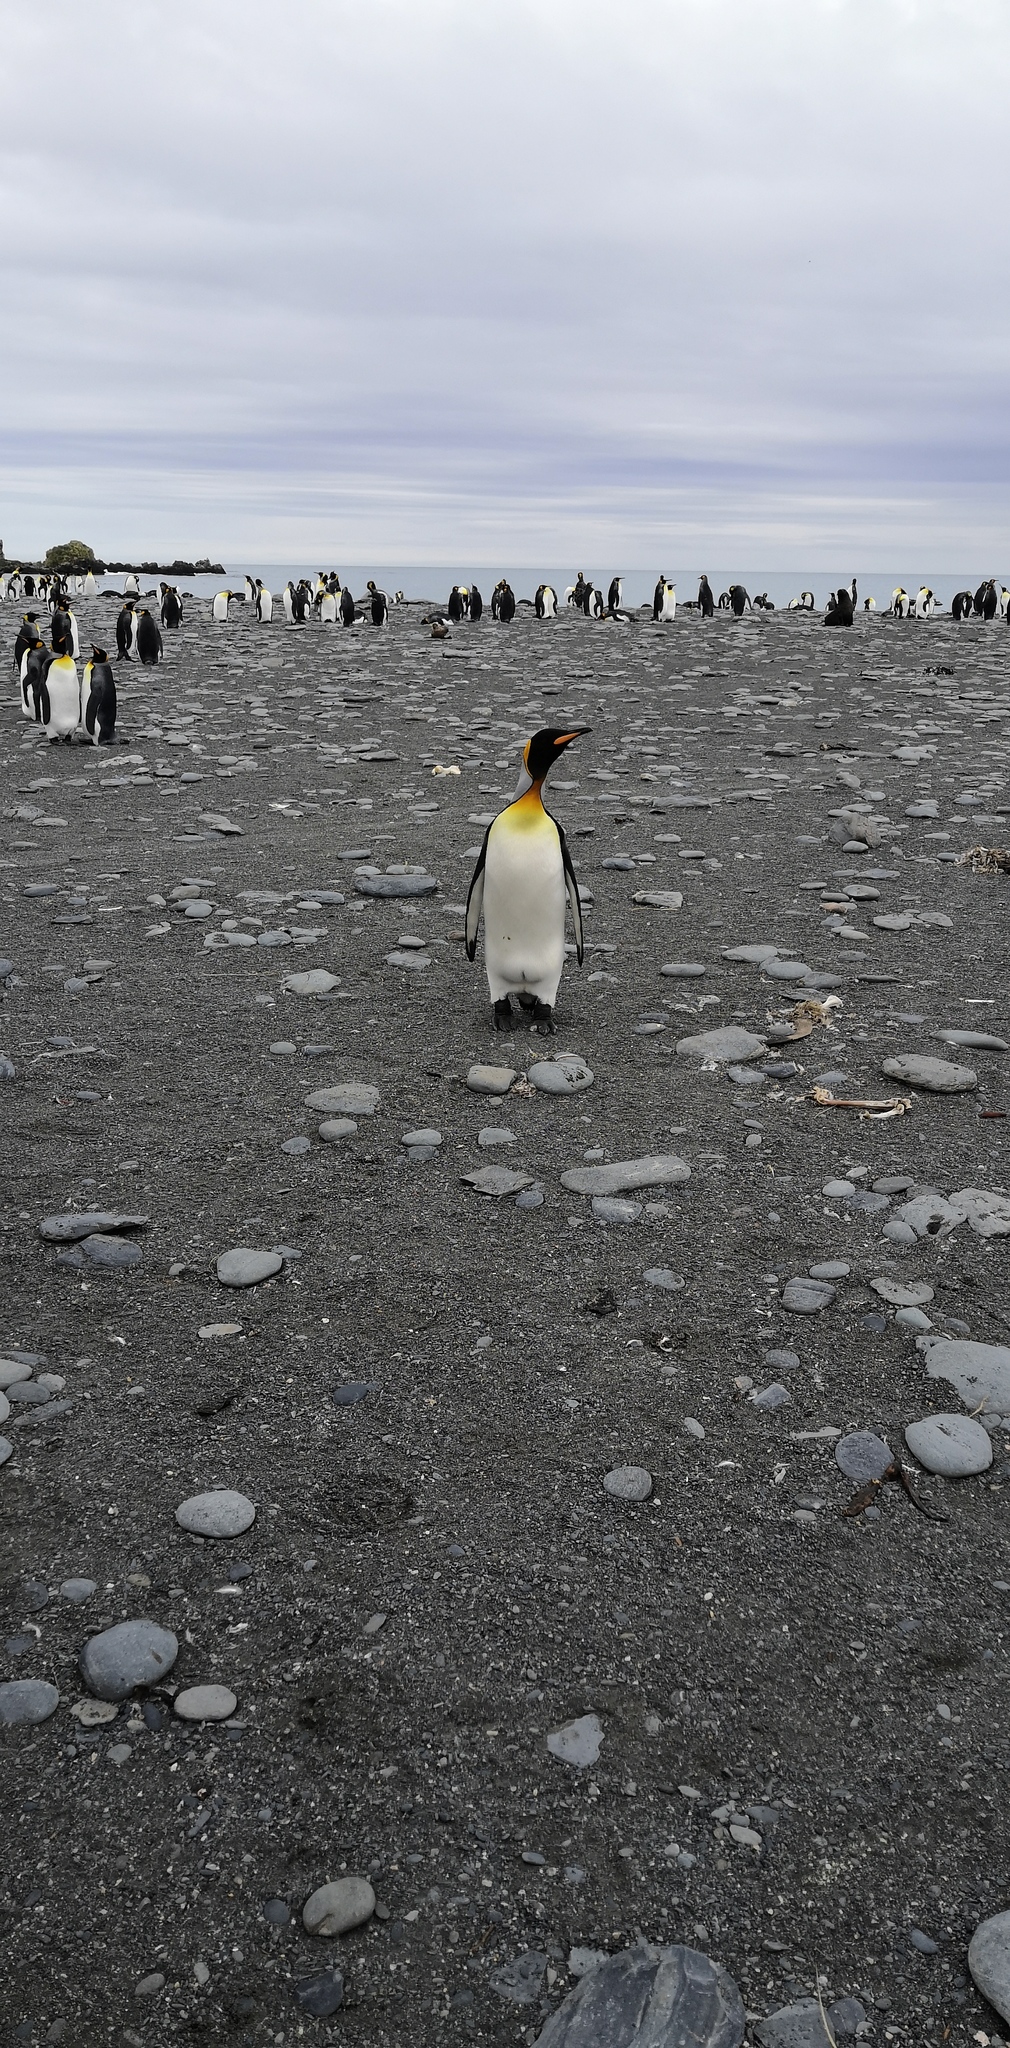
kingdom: Animalia
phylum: Chordata
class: Aves
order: Sphenisciformes
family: Spheniscidae
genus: Aptenodytes
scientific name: Aptenodytes patagonicus
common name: King penguin
